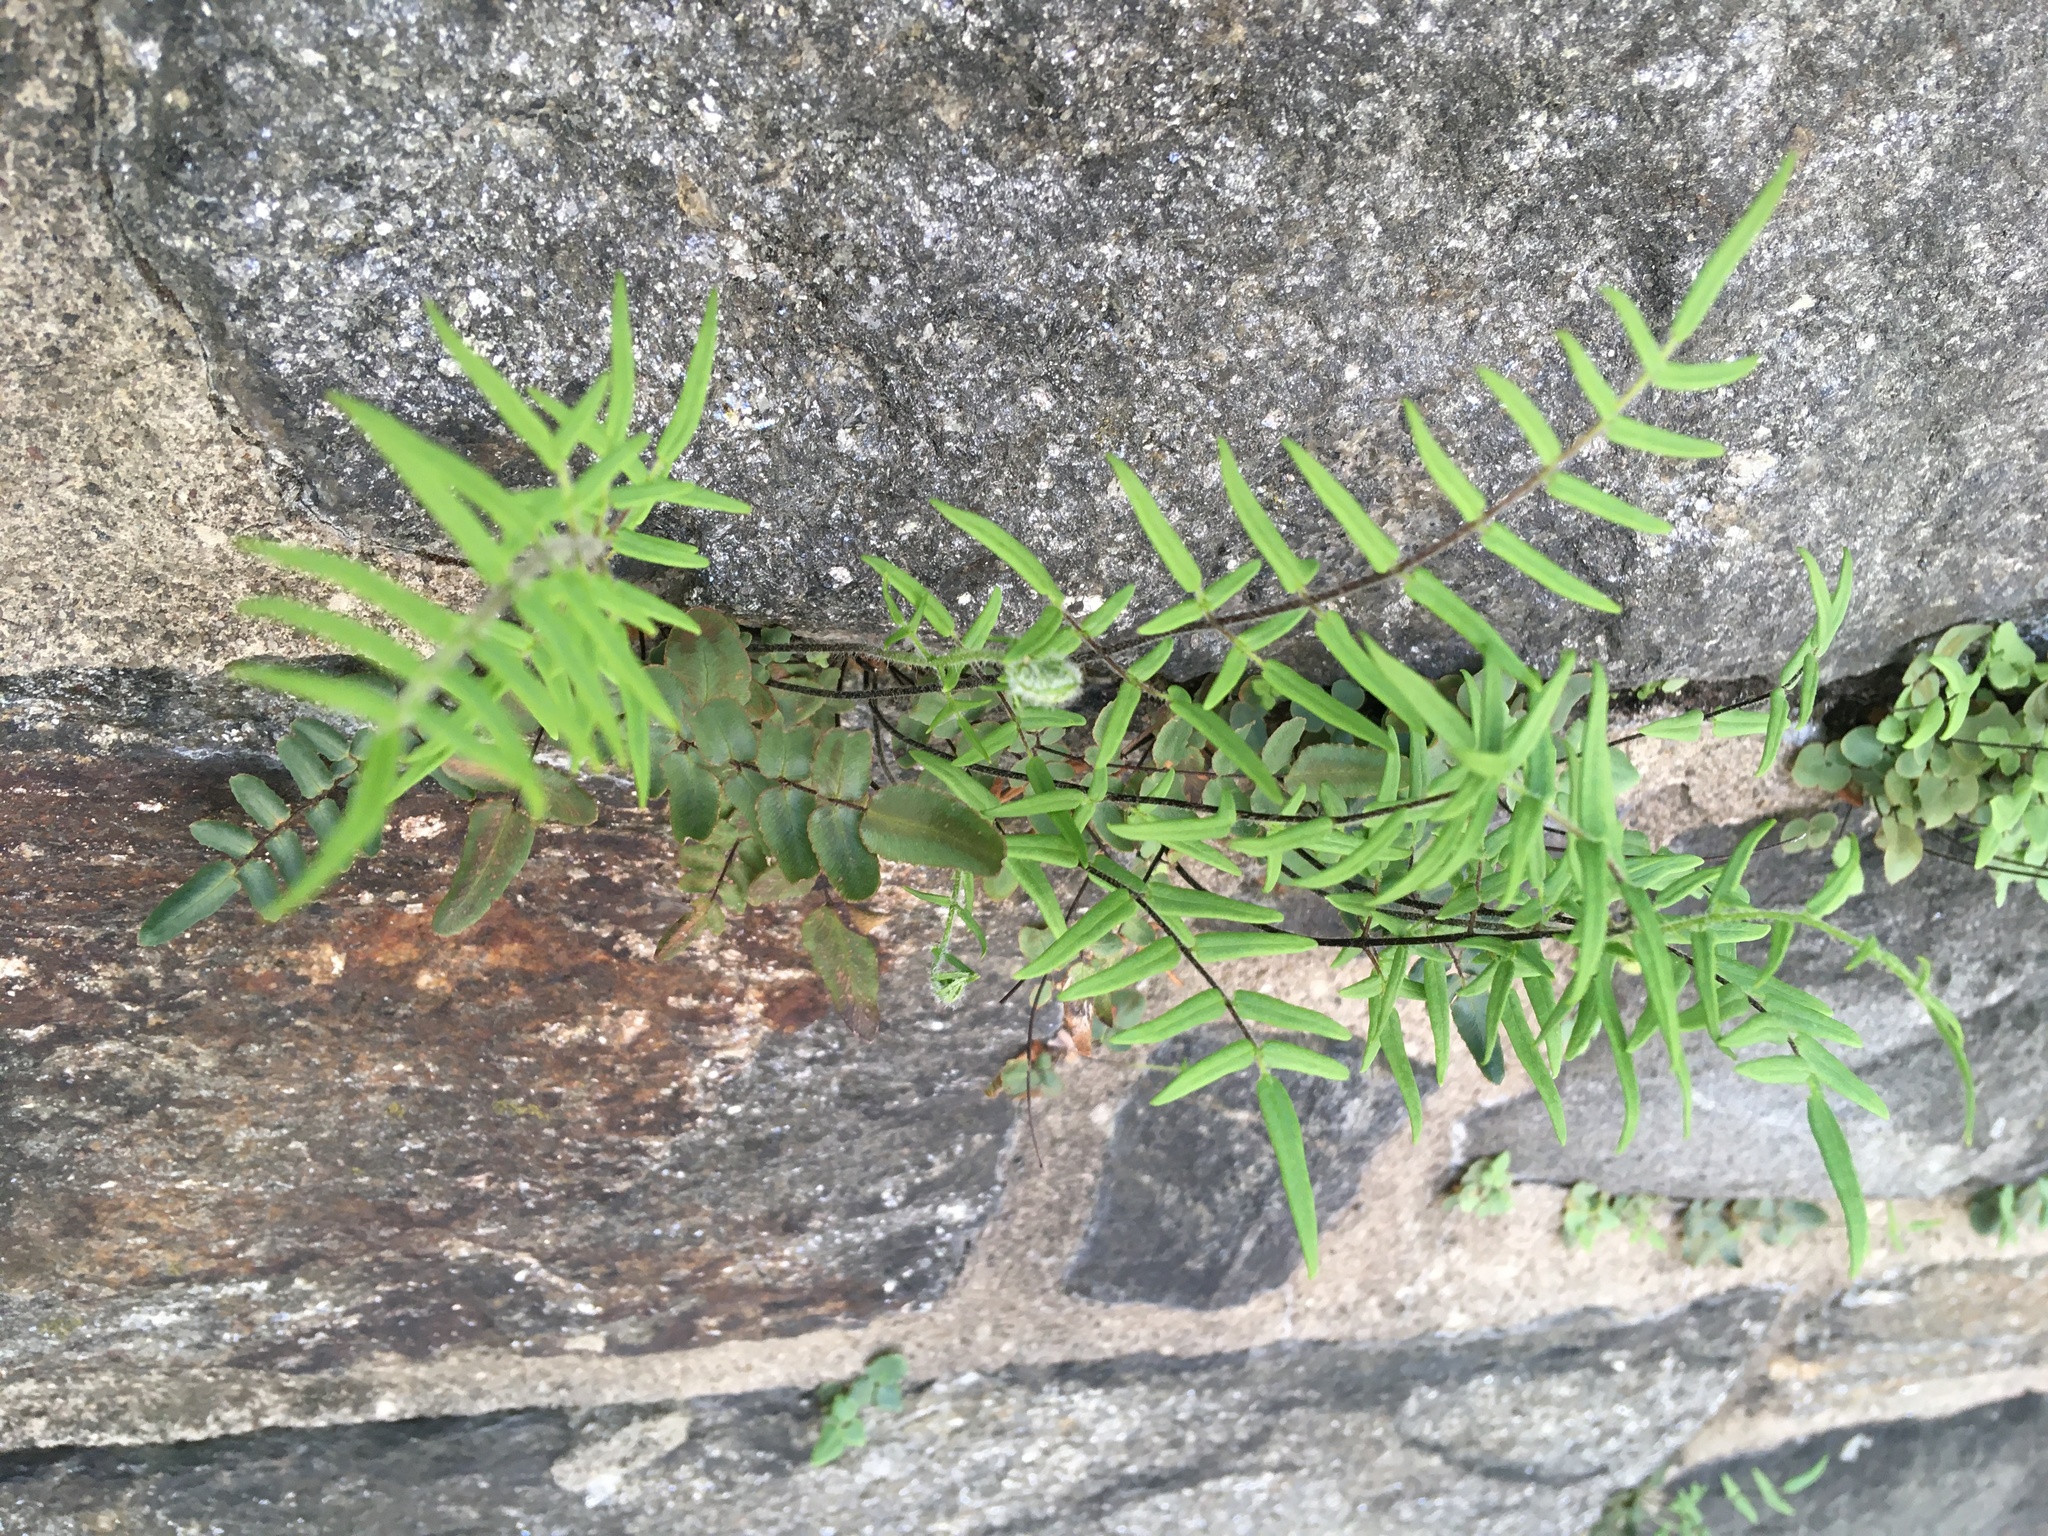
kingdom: Plantae
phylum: Tracheophyta
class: Polypodiopsida
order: Polypodiales
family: Pteridaceae
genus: Pellaea
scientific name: Pellaea atropurpurea
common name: Hairy cliffbrake
